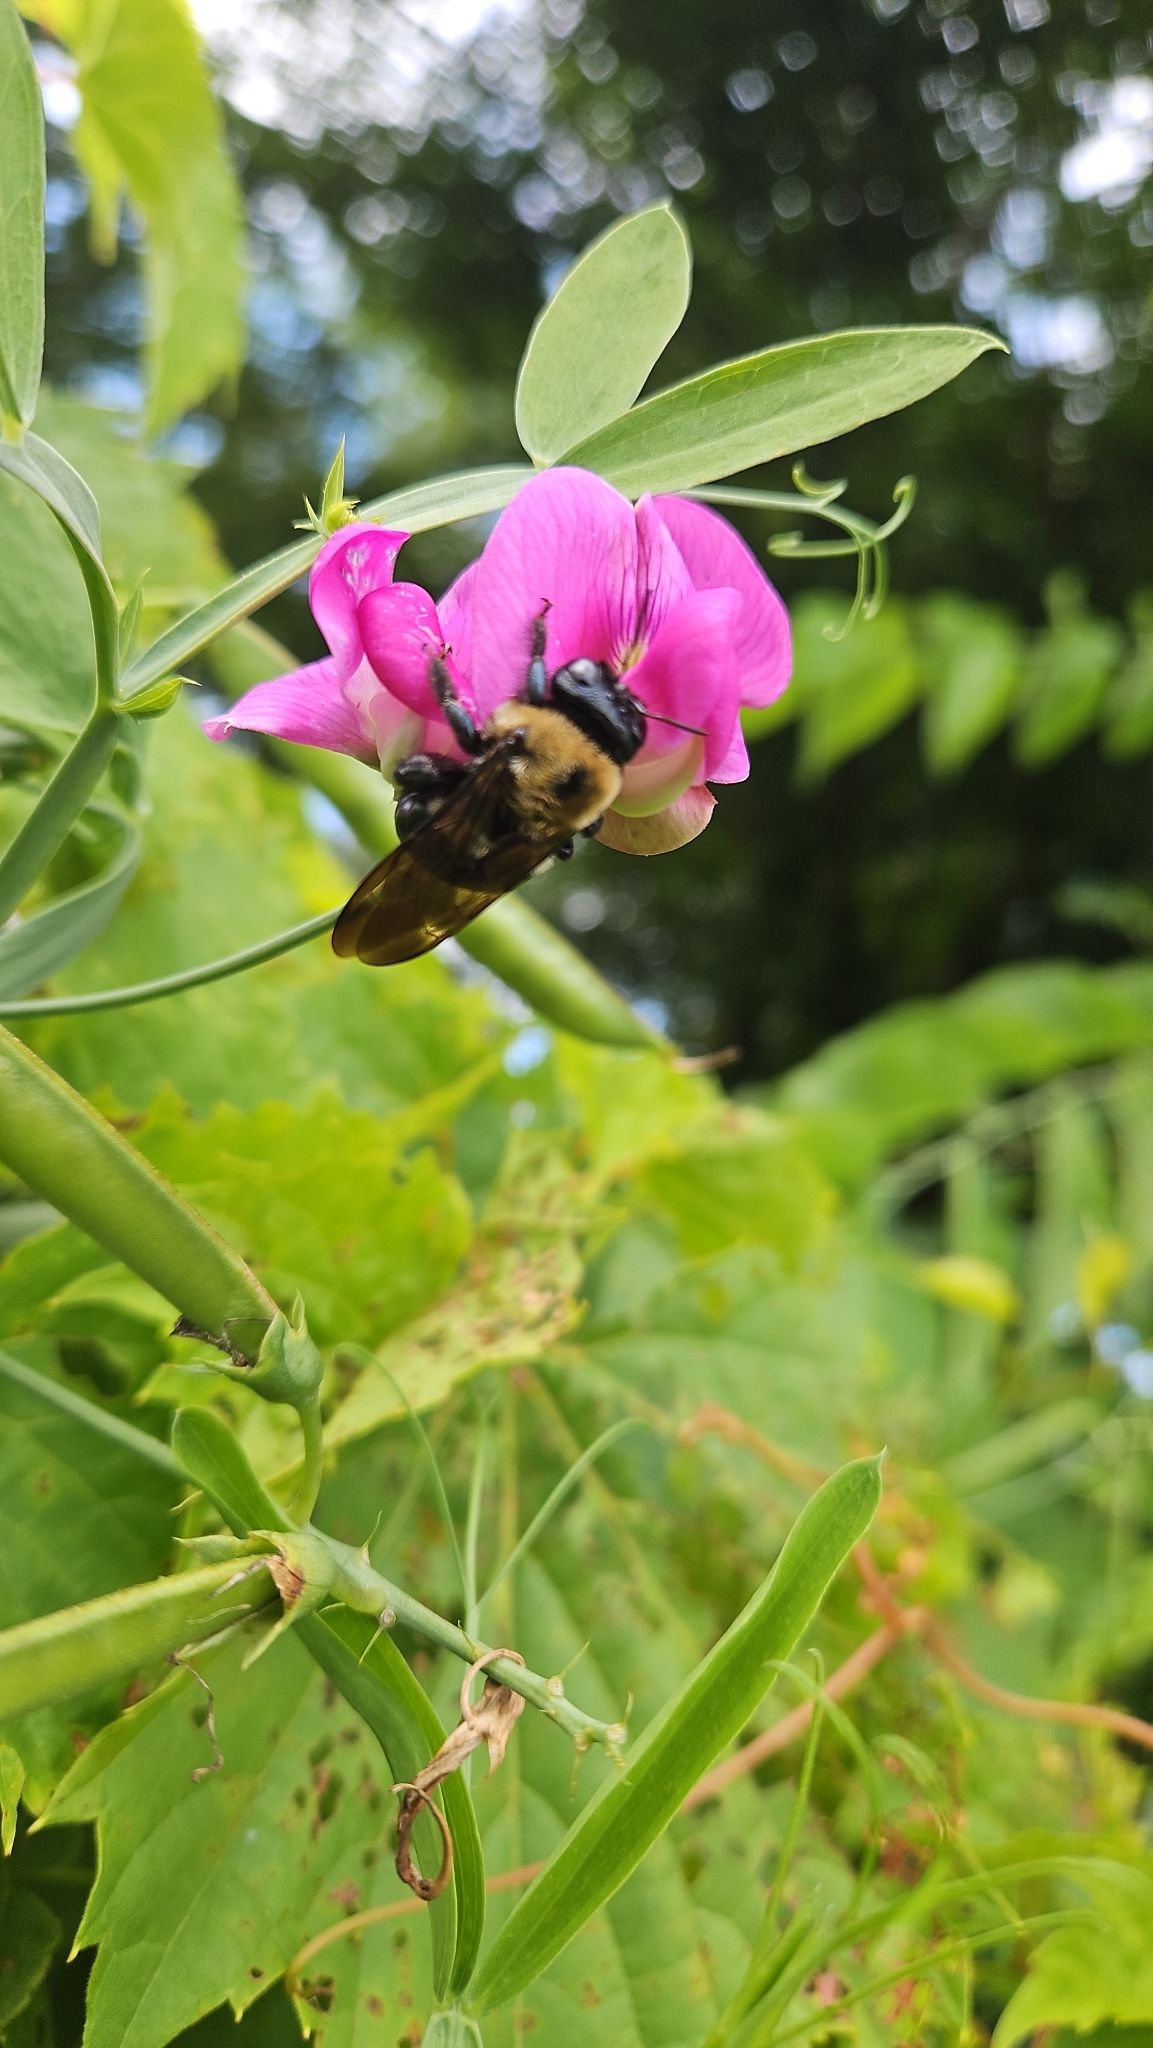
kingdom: Animalia
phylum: Arthropoda
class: Insecta
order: Hymenoptera
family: Apidae
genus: Xylocopa
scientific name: Xylocopa virginica
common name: Carpenter bee
